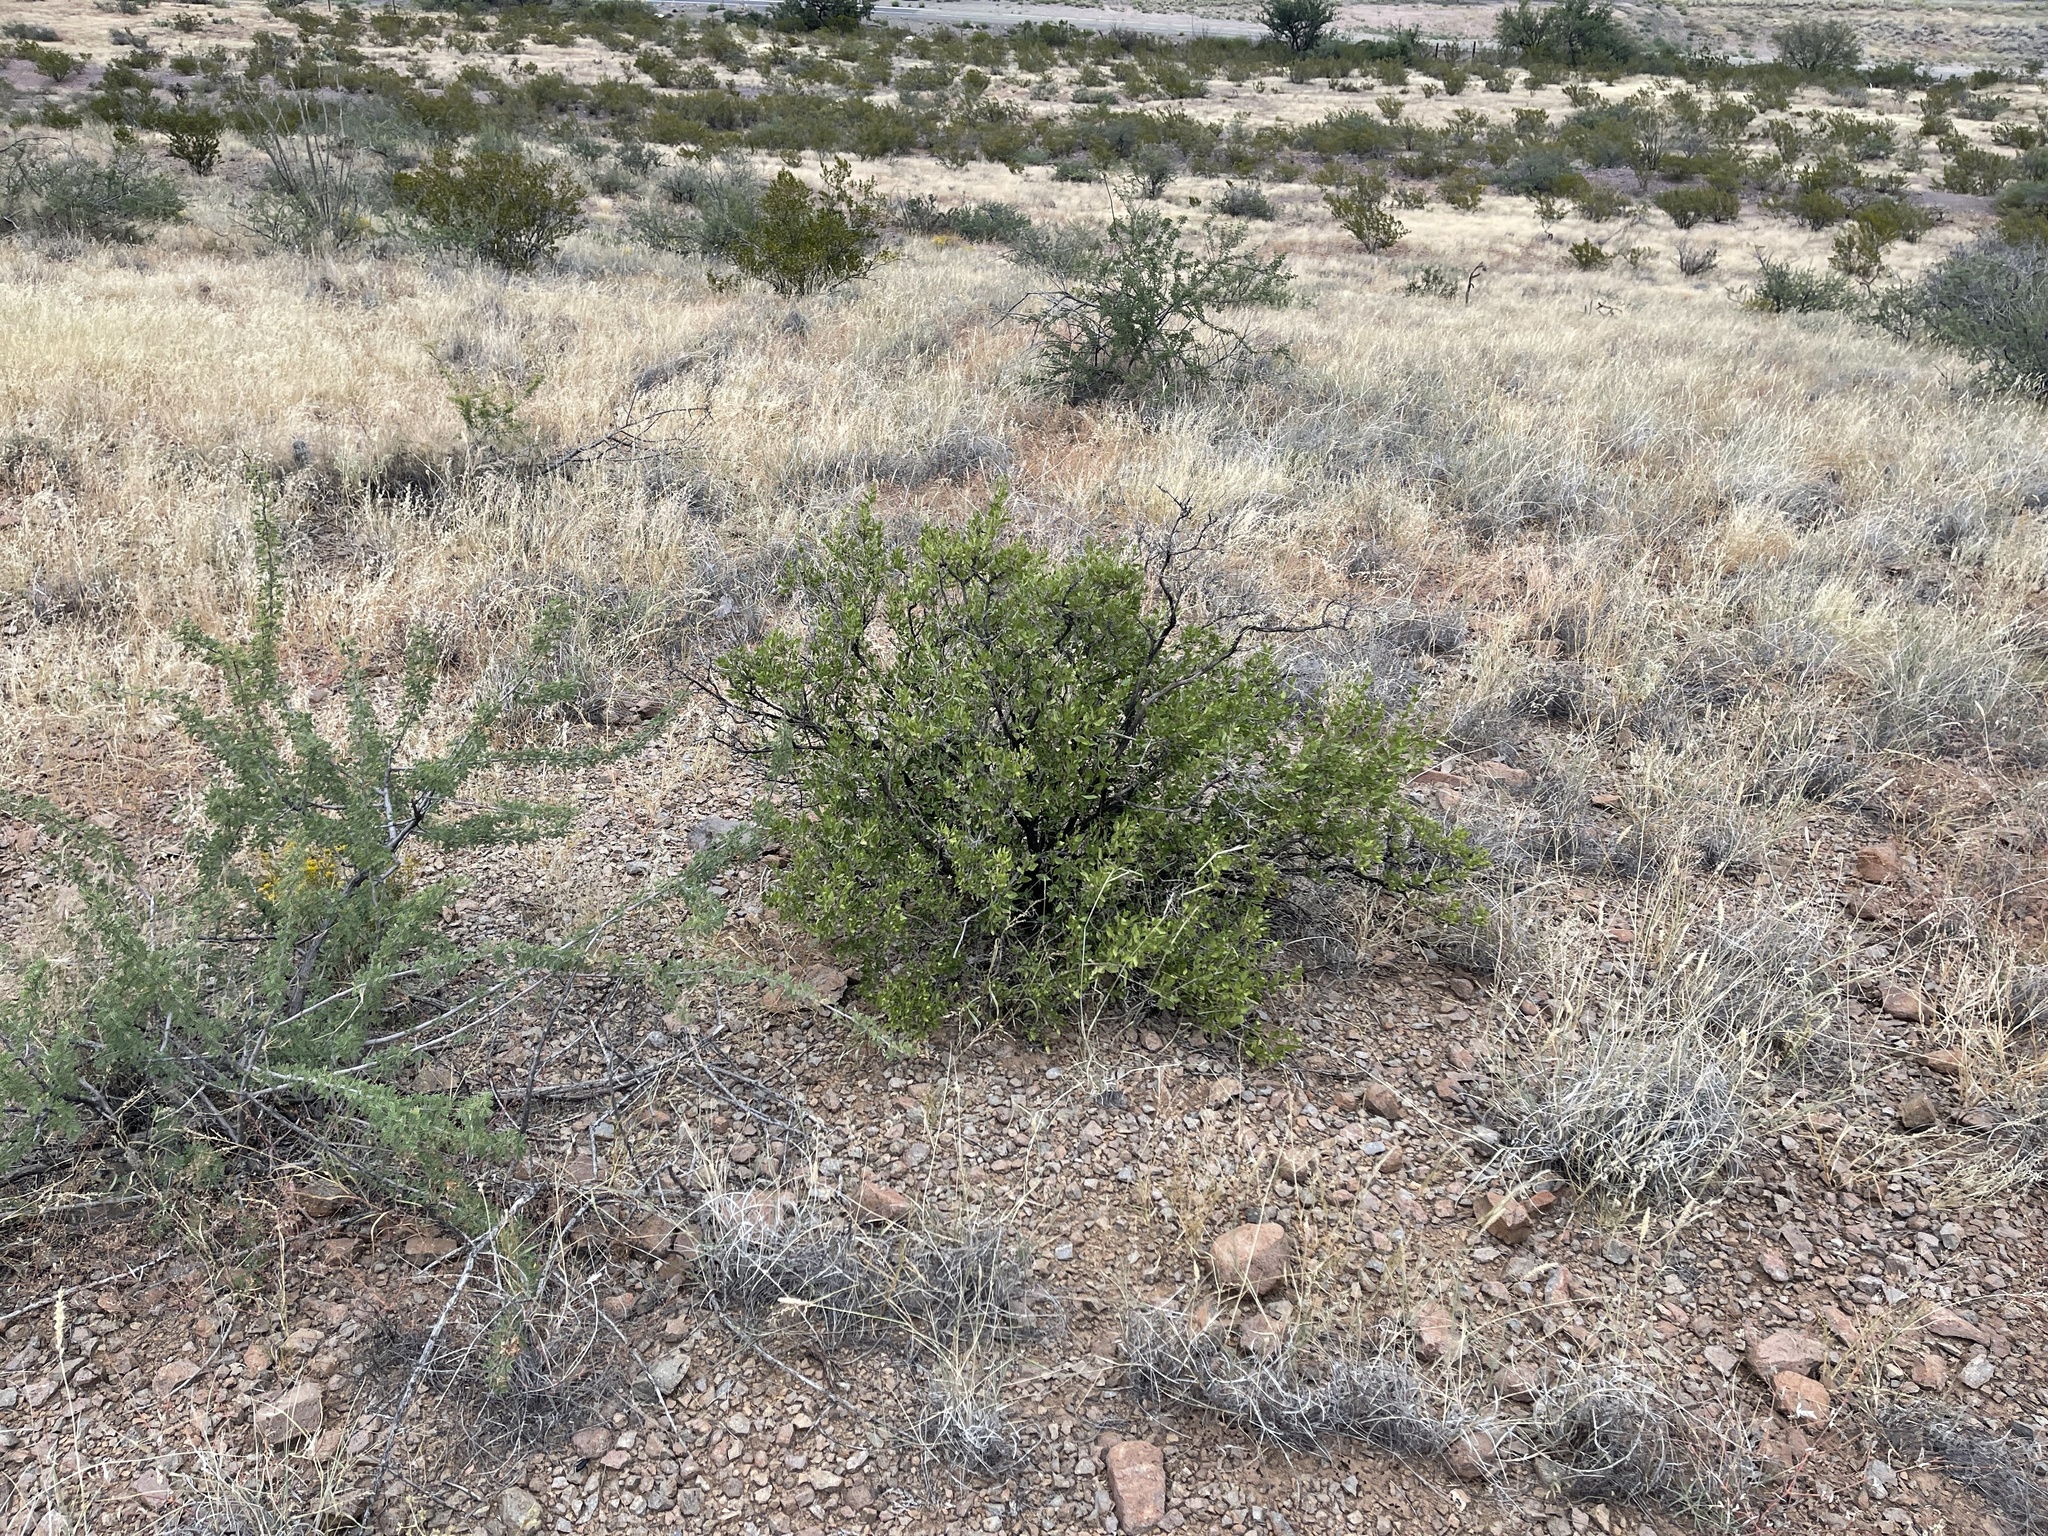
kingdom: Plantae
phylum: Tracheophyta
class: Magnoliopsida
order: Asterales
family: Asteraceae
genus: Flourensia
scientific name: Flourensia cernua
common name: Varnishbush
